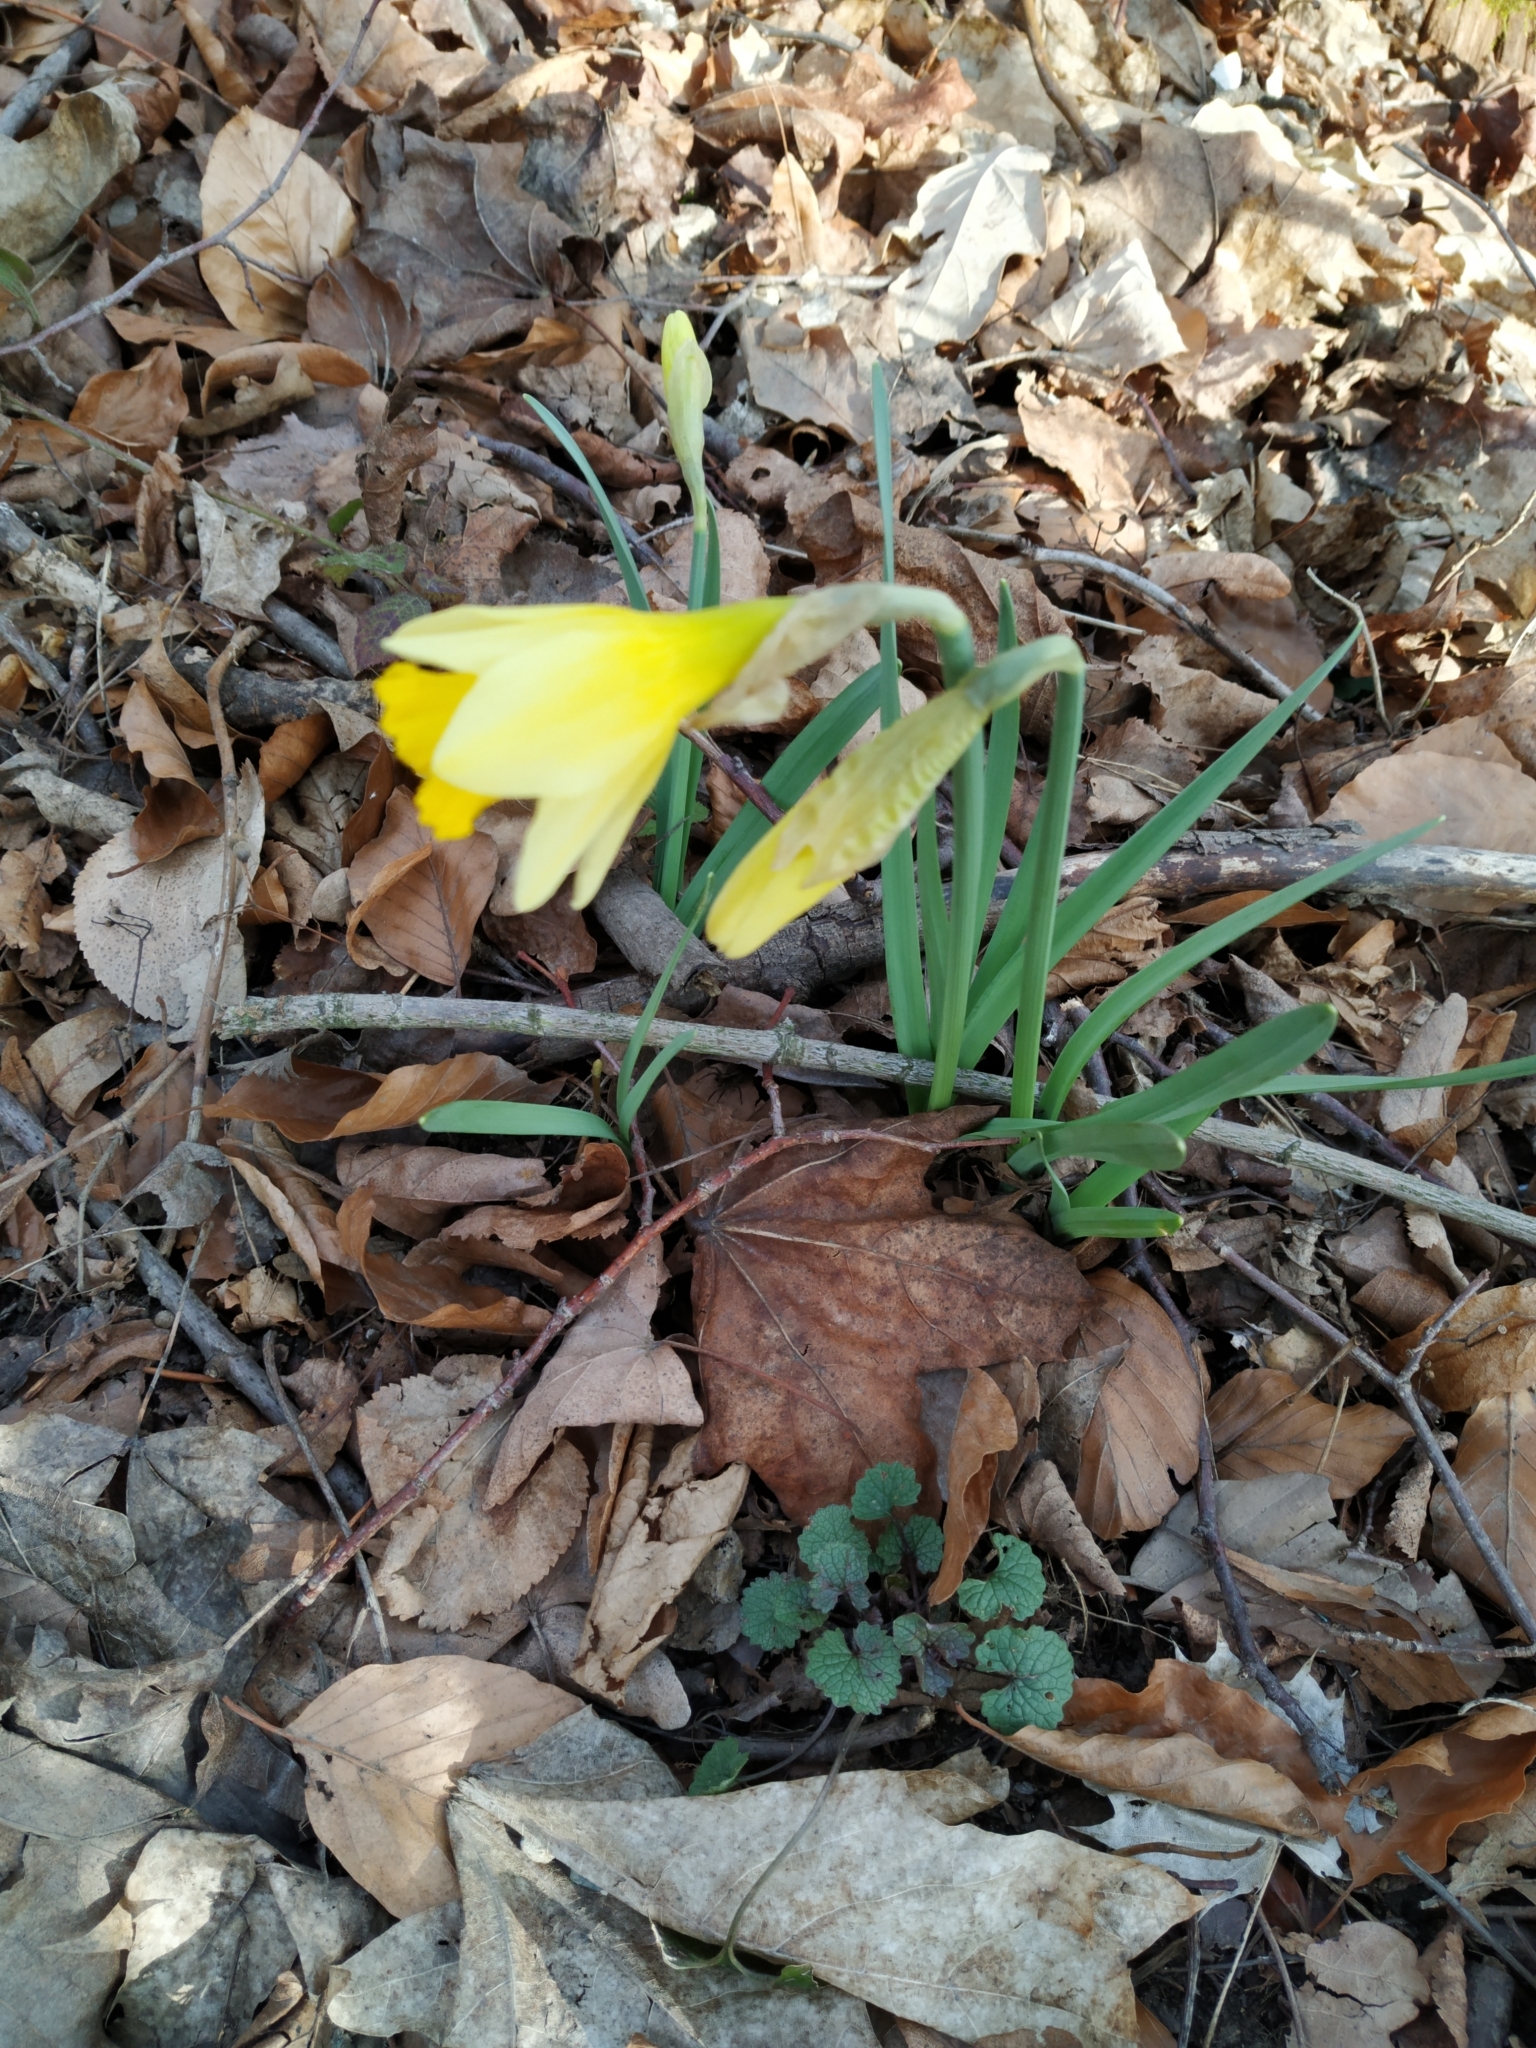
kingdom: Plantae
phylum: Tracheophyta
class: Liliopsida
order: Asparagales
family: Amaryllidaceae
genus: Narcissus
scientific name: Narcissus pseudonarcissus
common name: Daffodil
